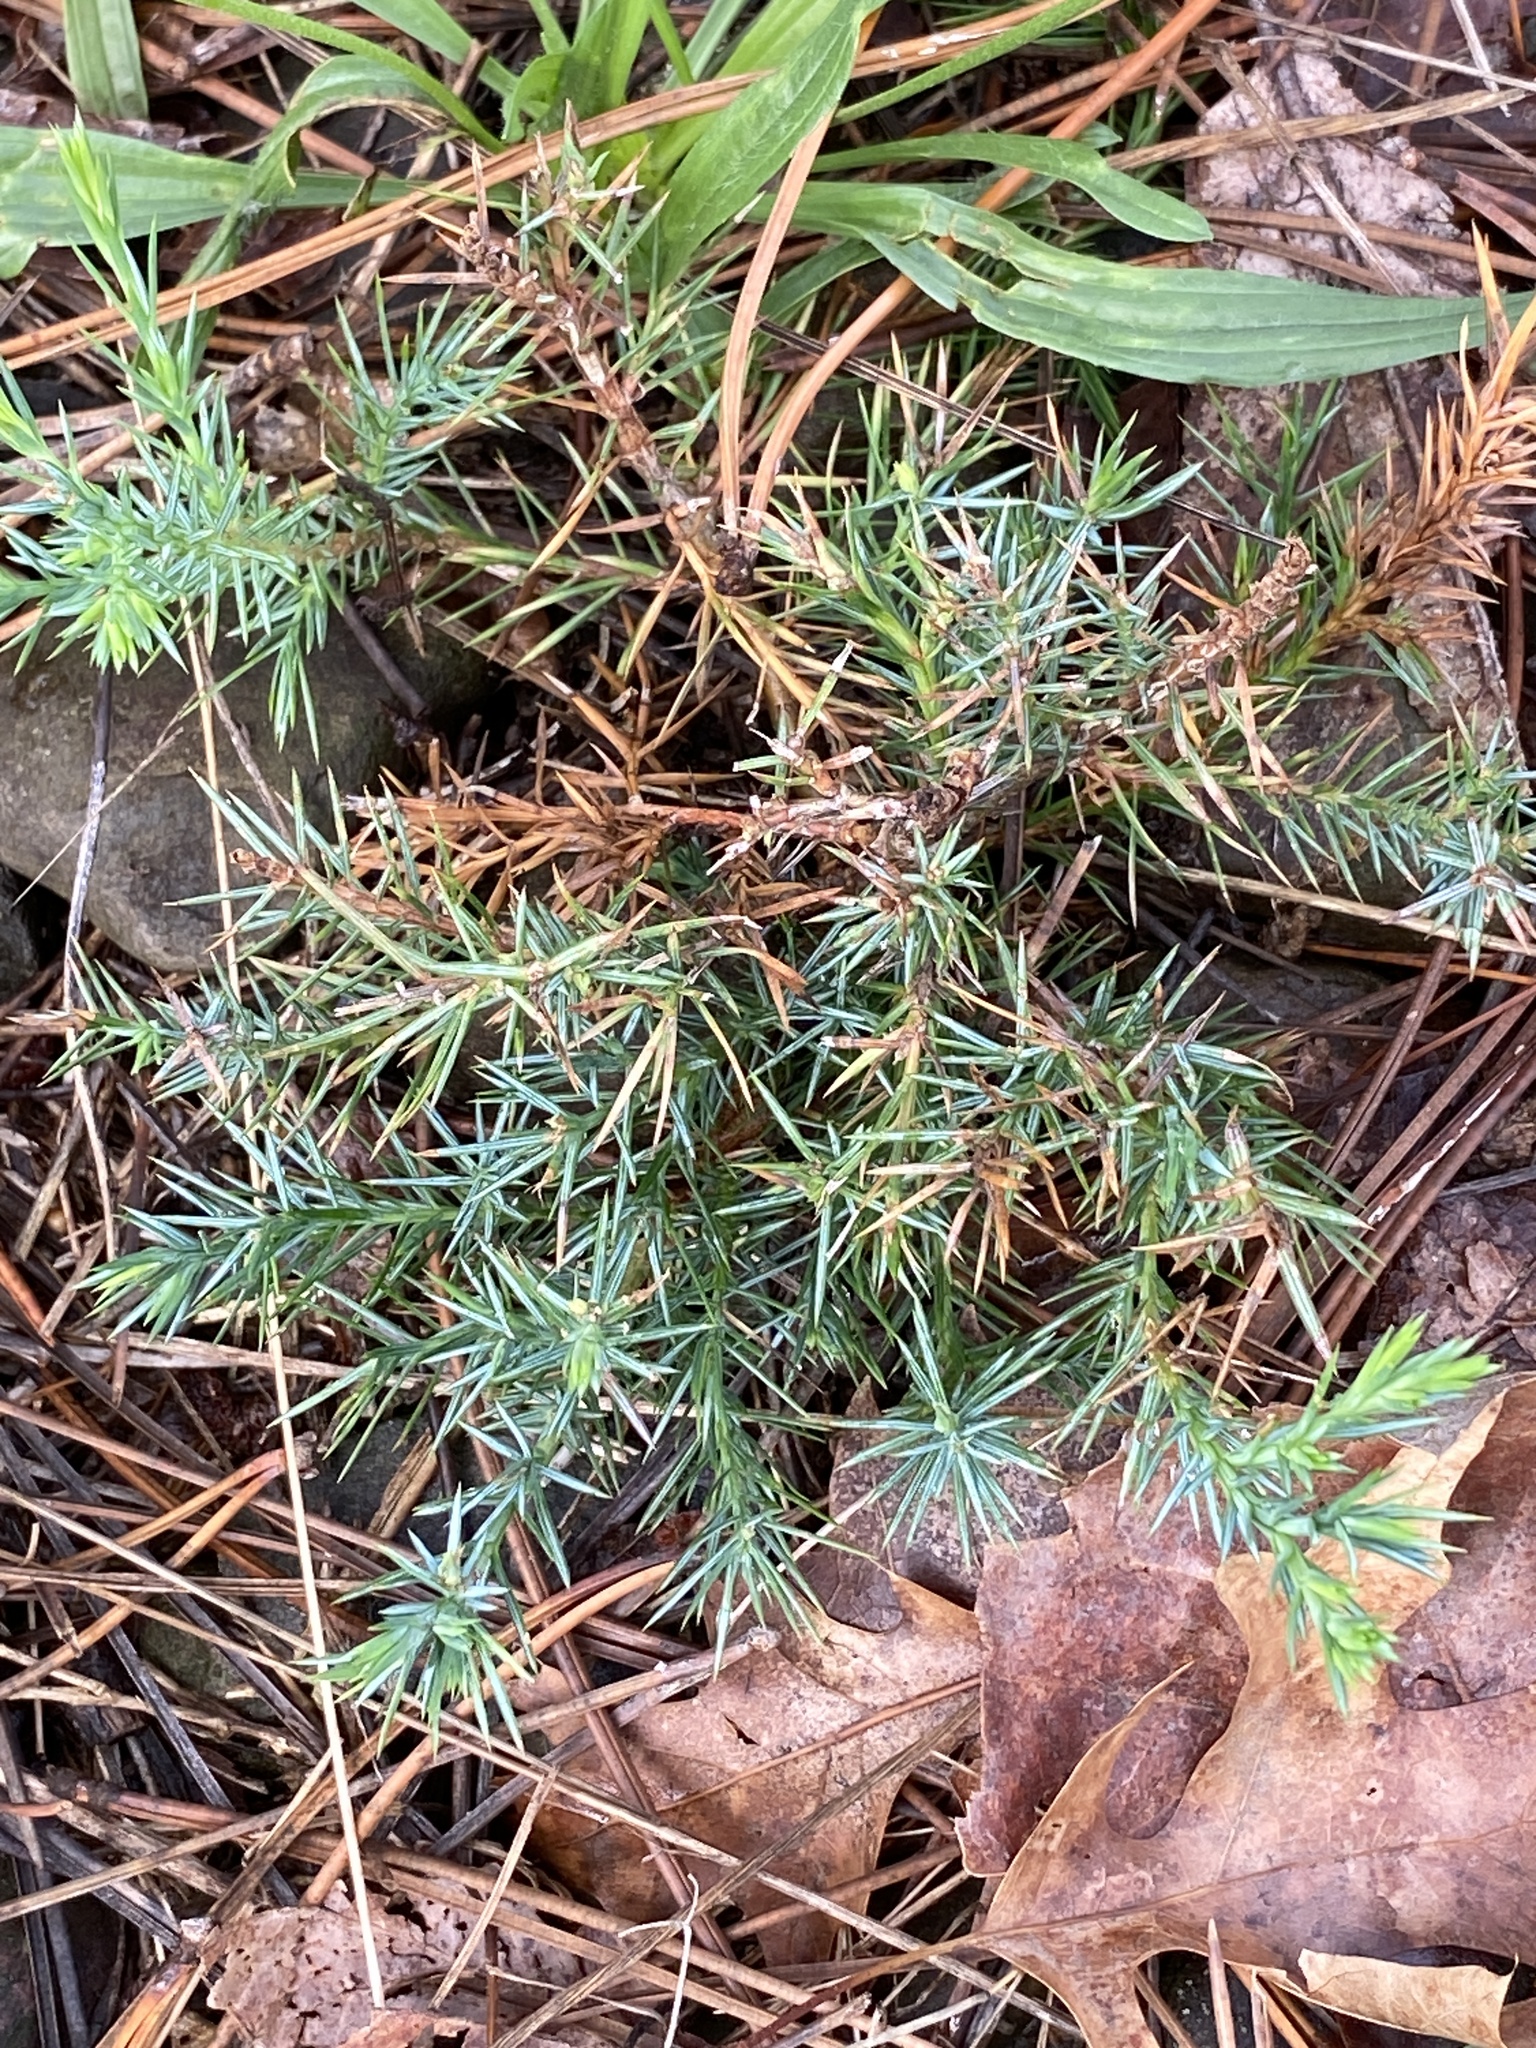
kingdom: Plantae
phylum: Tracheophyta
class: Pinopsida
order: Pinales
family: Cupressaceae
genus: Juniperus
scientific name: Juniperus virginiana
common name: Red juniper
